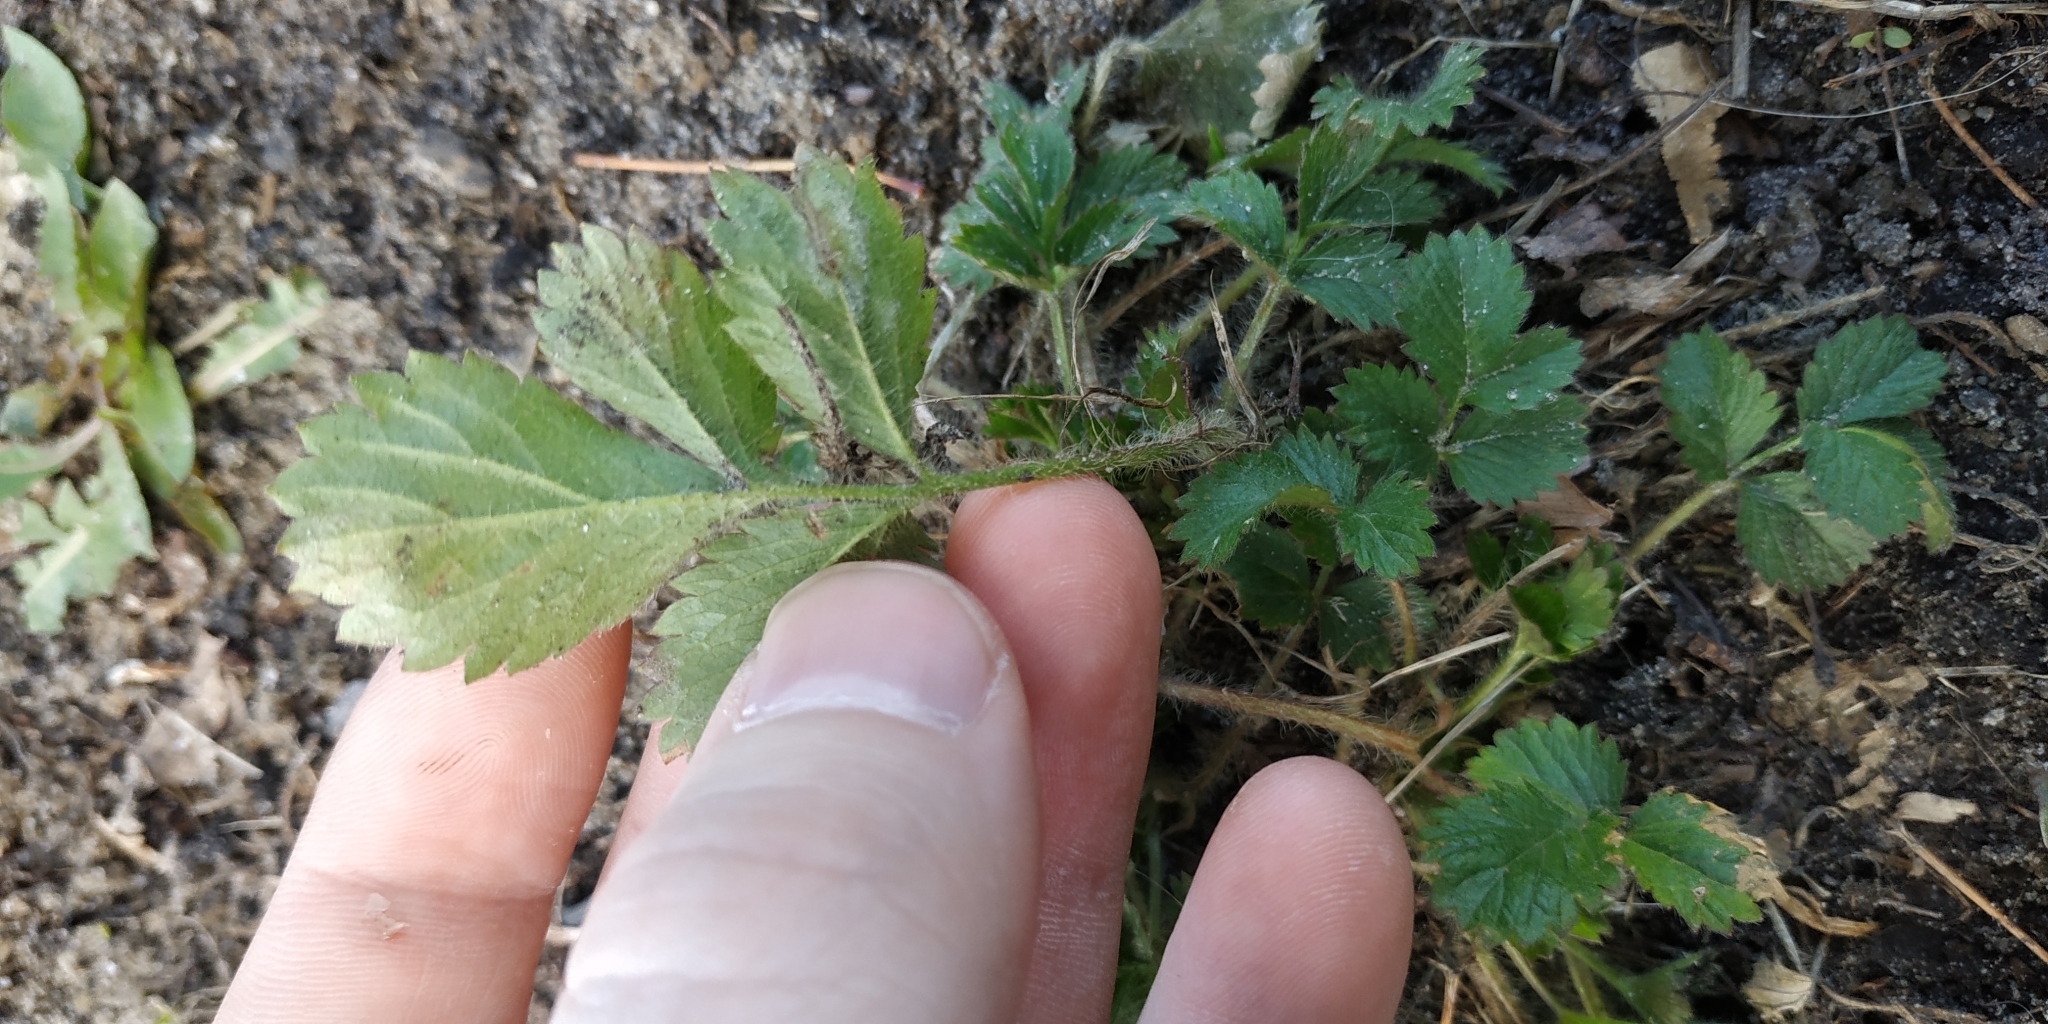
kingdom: Plantae
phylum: Tracheophyta
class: Magnoliopsida
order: Rosales
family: Rosaceae
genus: Potentilla
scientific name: Potentilla norvegica
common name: Ternate-leaved cinquefoil
